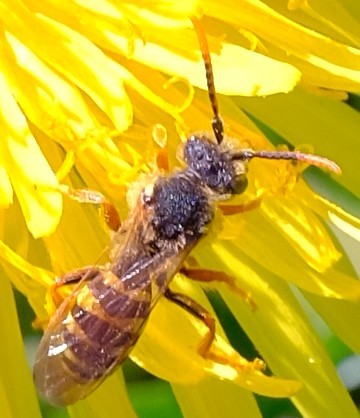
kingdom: Animalia
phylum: Arthropoda
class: Insecta
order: Hymenoptera
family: Apidae
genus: Nomada
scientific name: Nomada goodeniana
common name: Gooden's nomad bee
